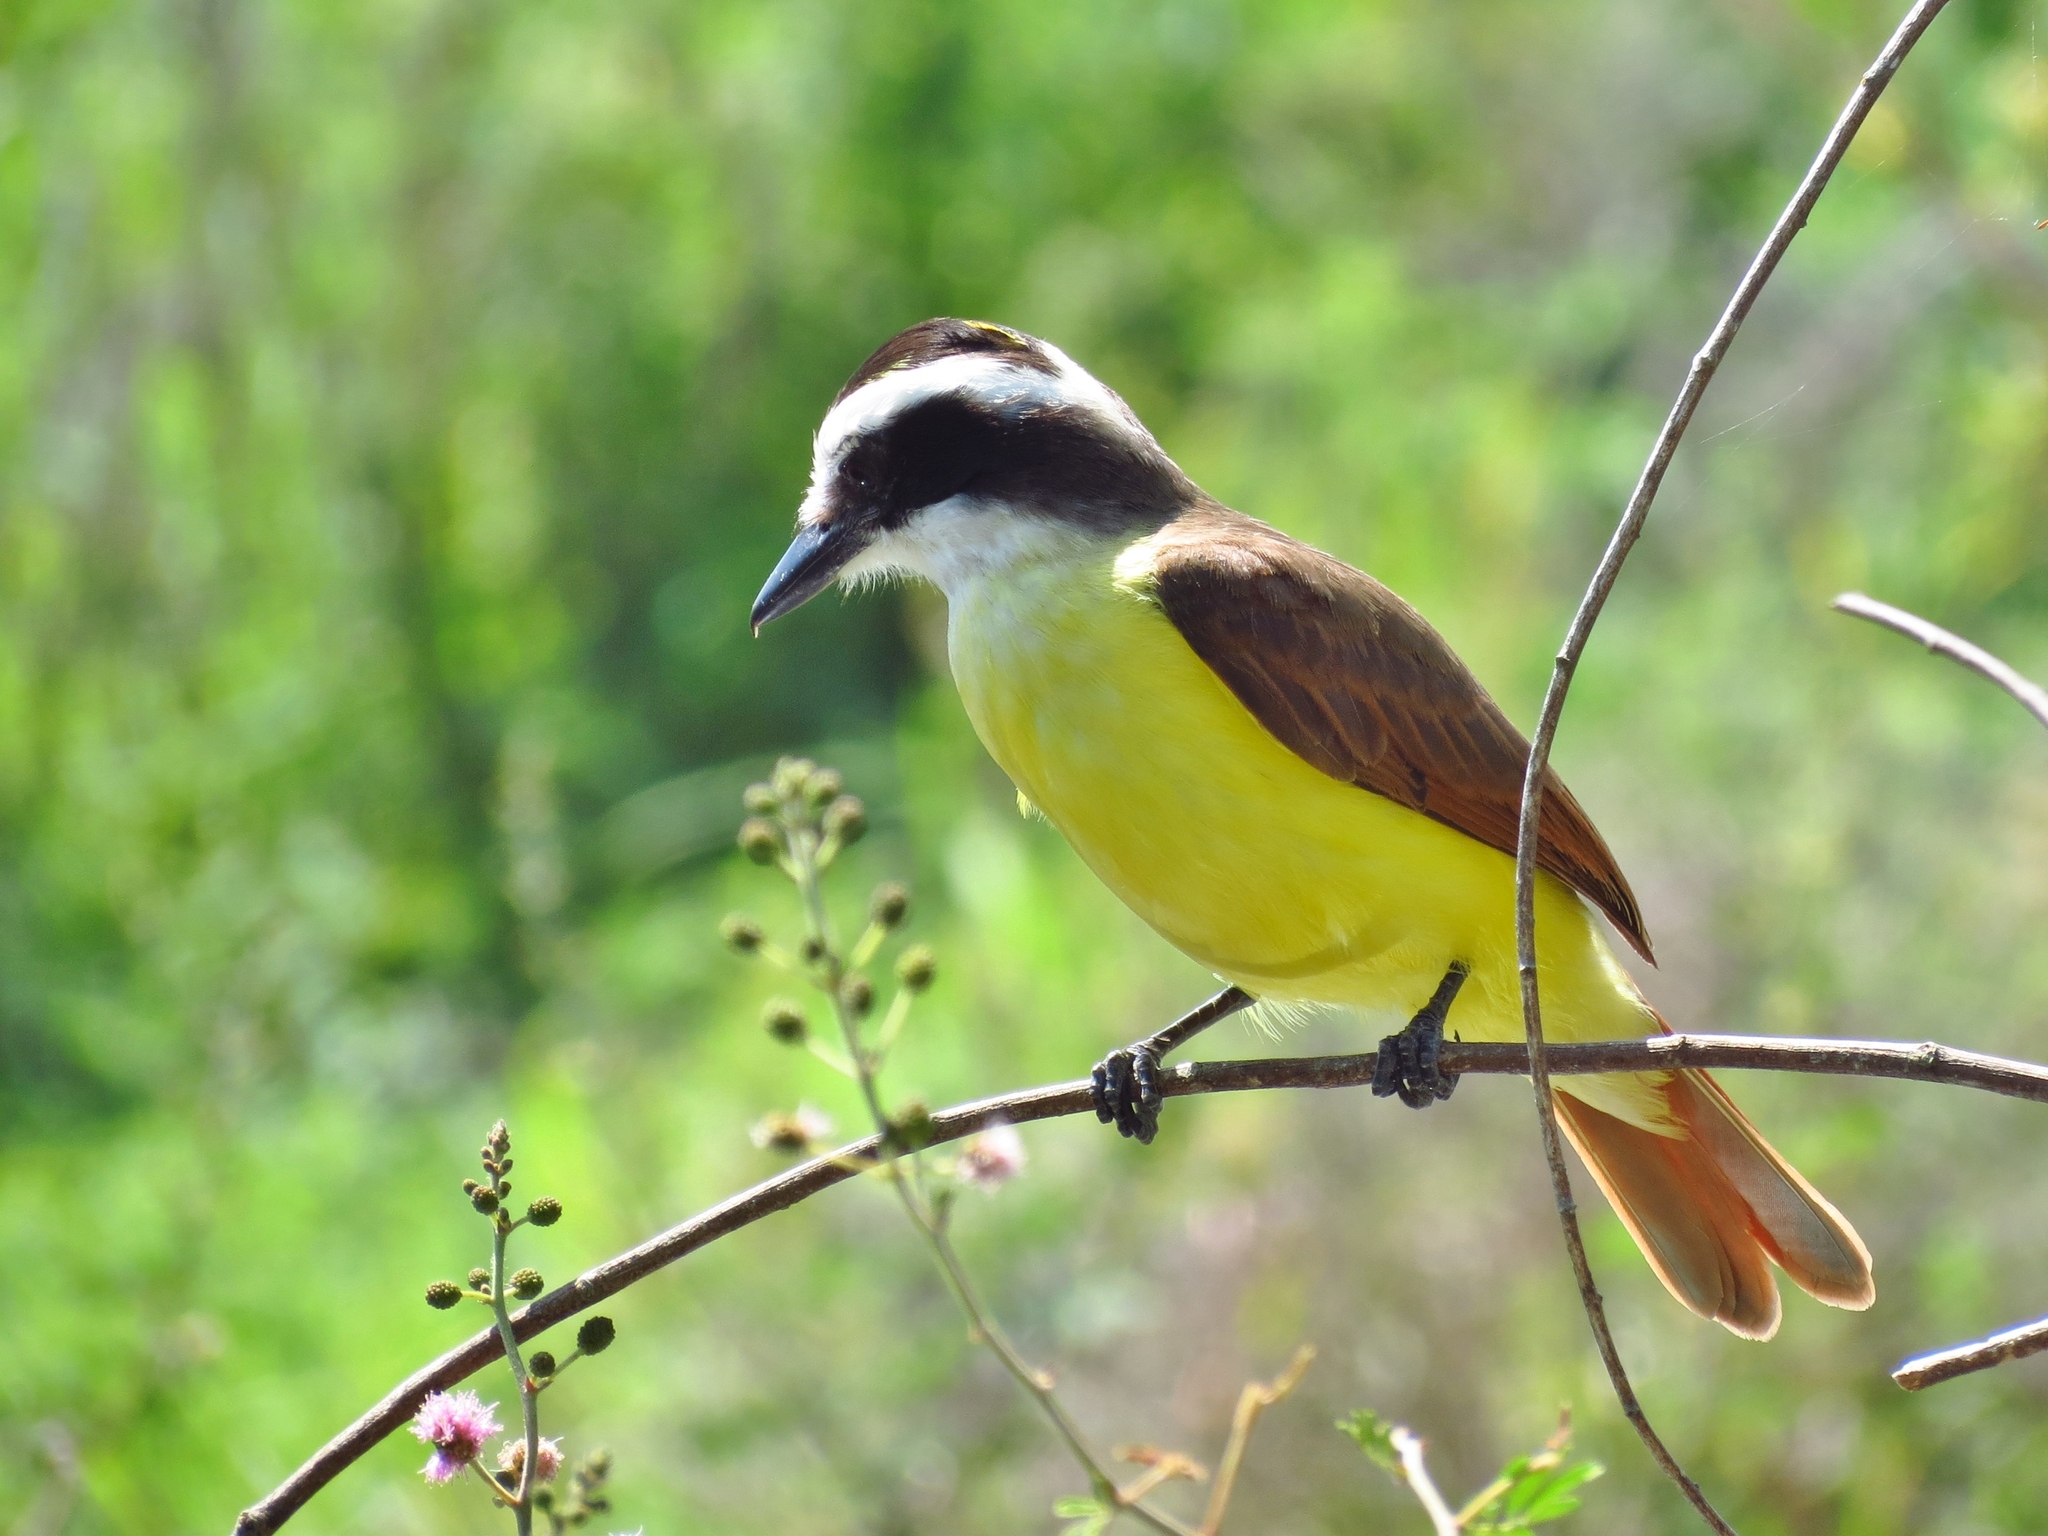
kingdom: Animalia
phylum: Chordata
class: Aves
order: Passeriformes
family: Tyrannidae
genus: Pitangus
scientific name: Pitangus sulphuratus
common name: Great kiskadee
